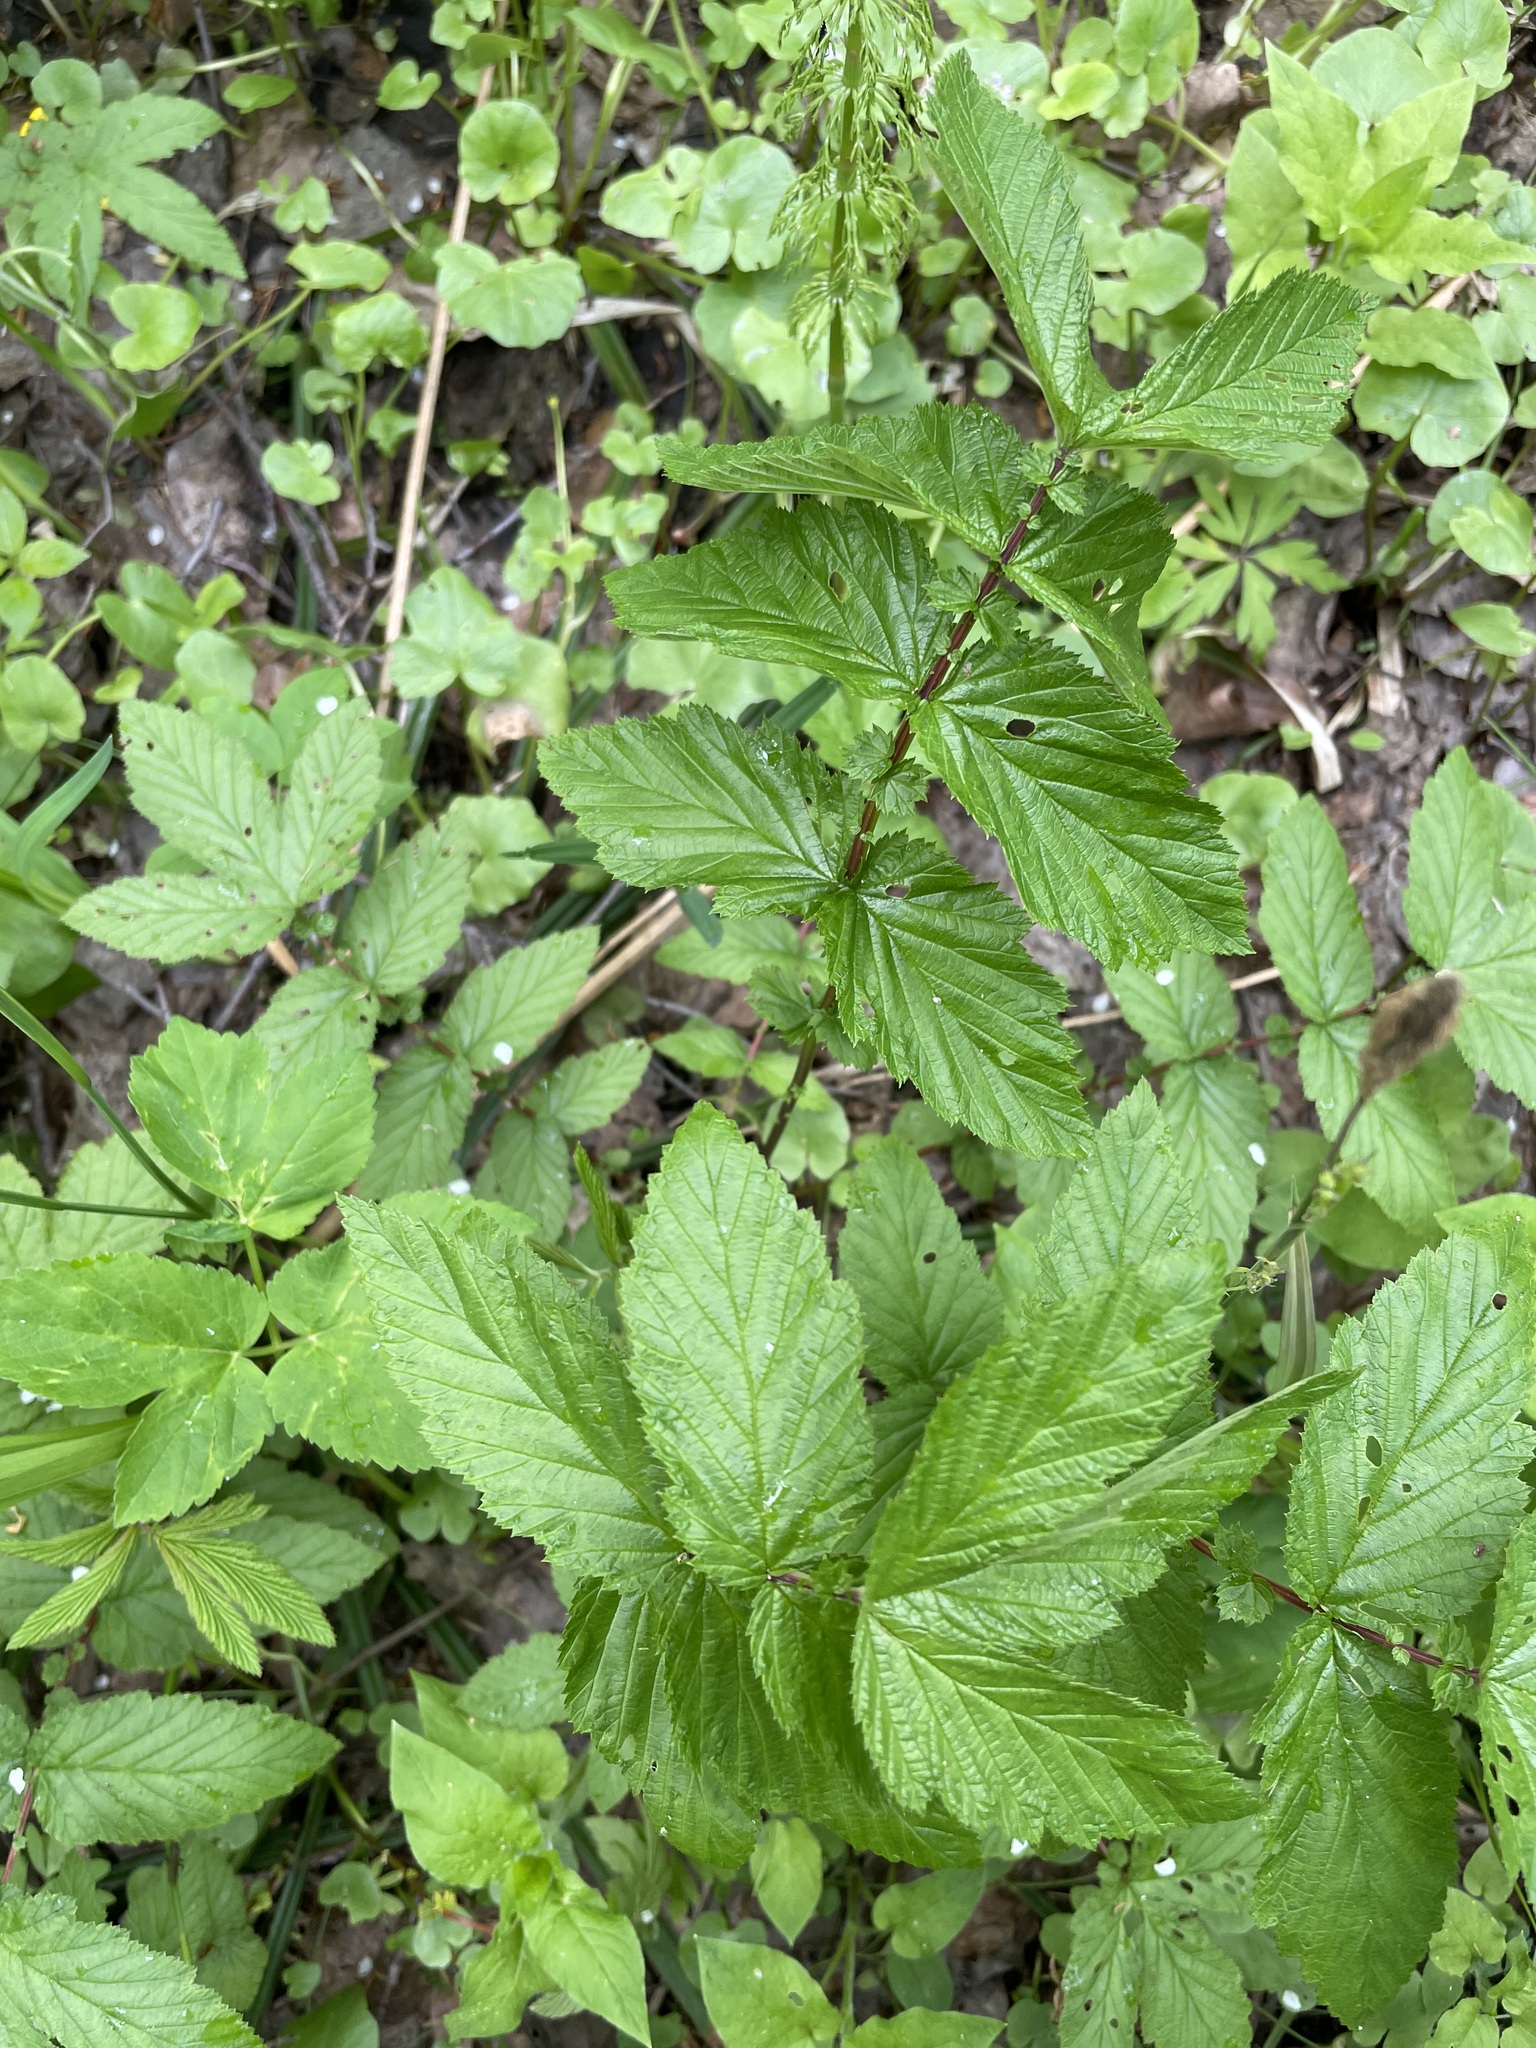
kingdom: Plantae
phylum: Tracheophyta
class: Magnoliopsida
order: Rosales
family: Rosaceae
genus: Filipendula
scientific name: Filipendula ulmaria
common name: Meadowsweet
